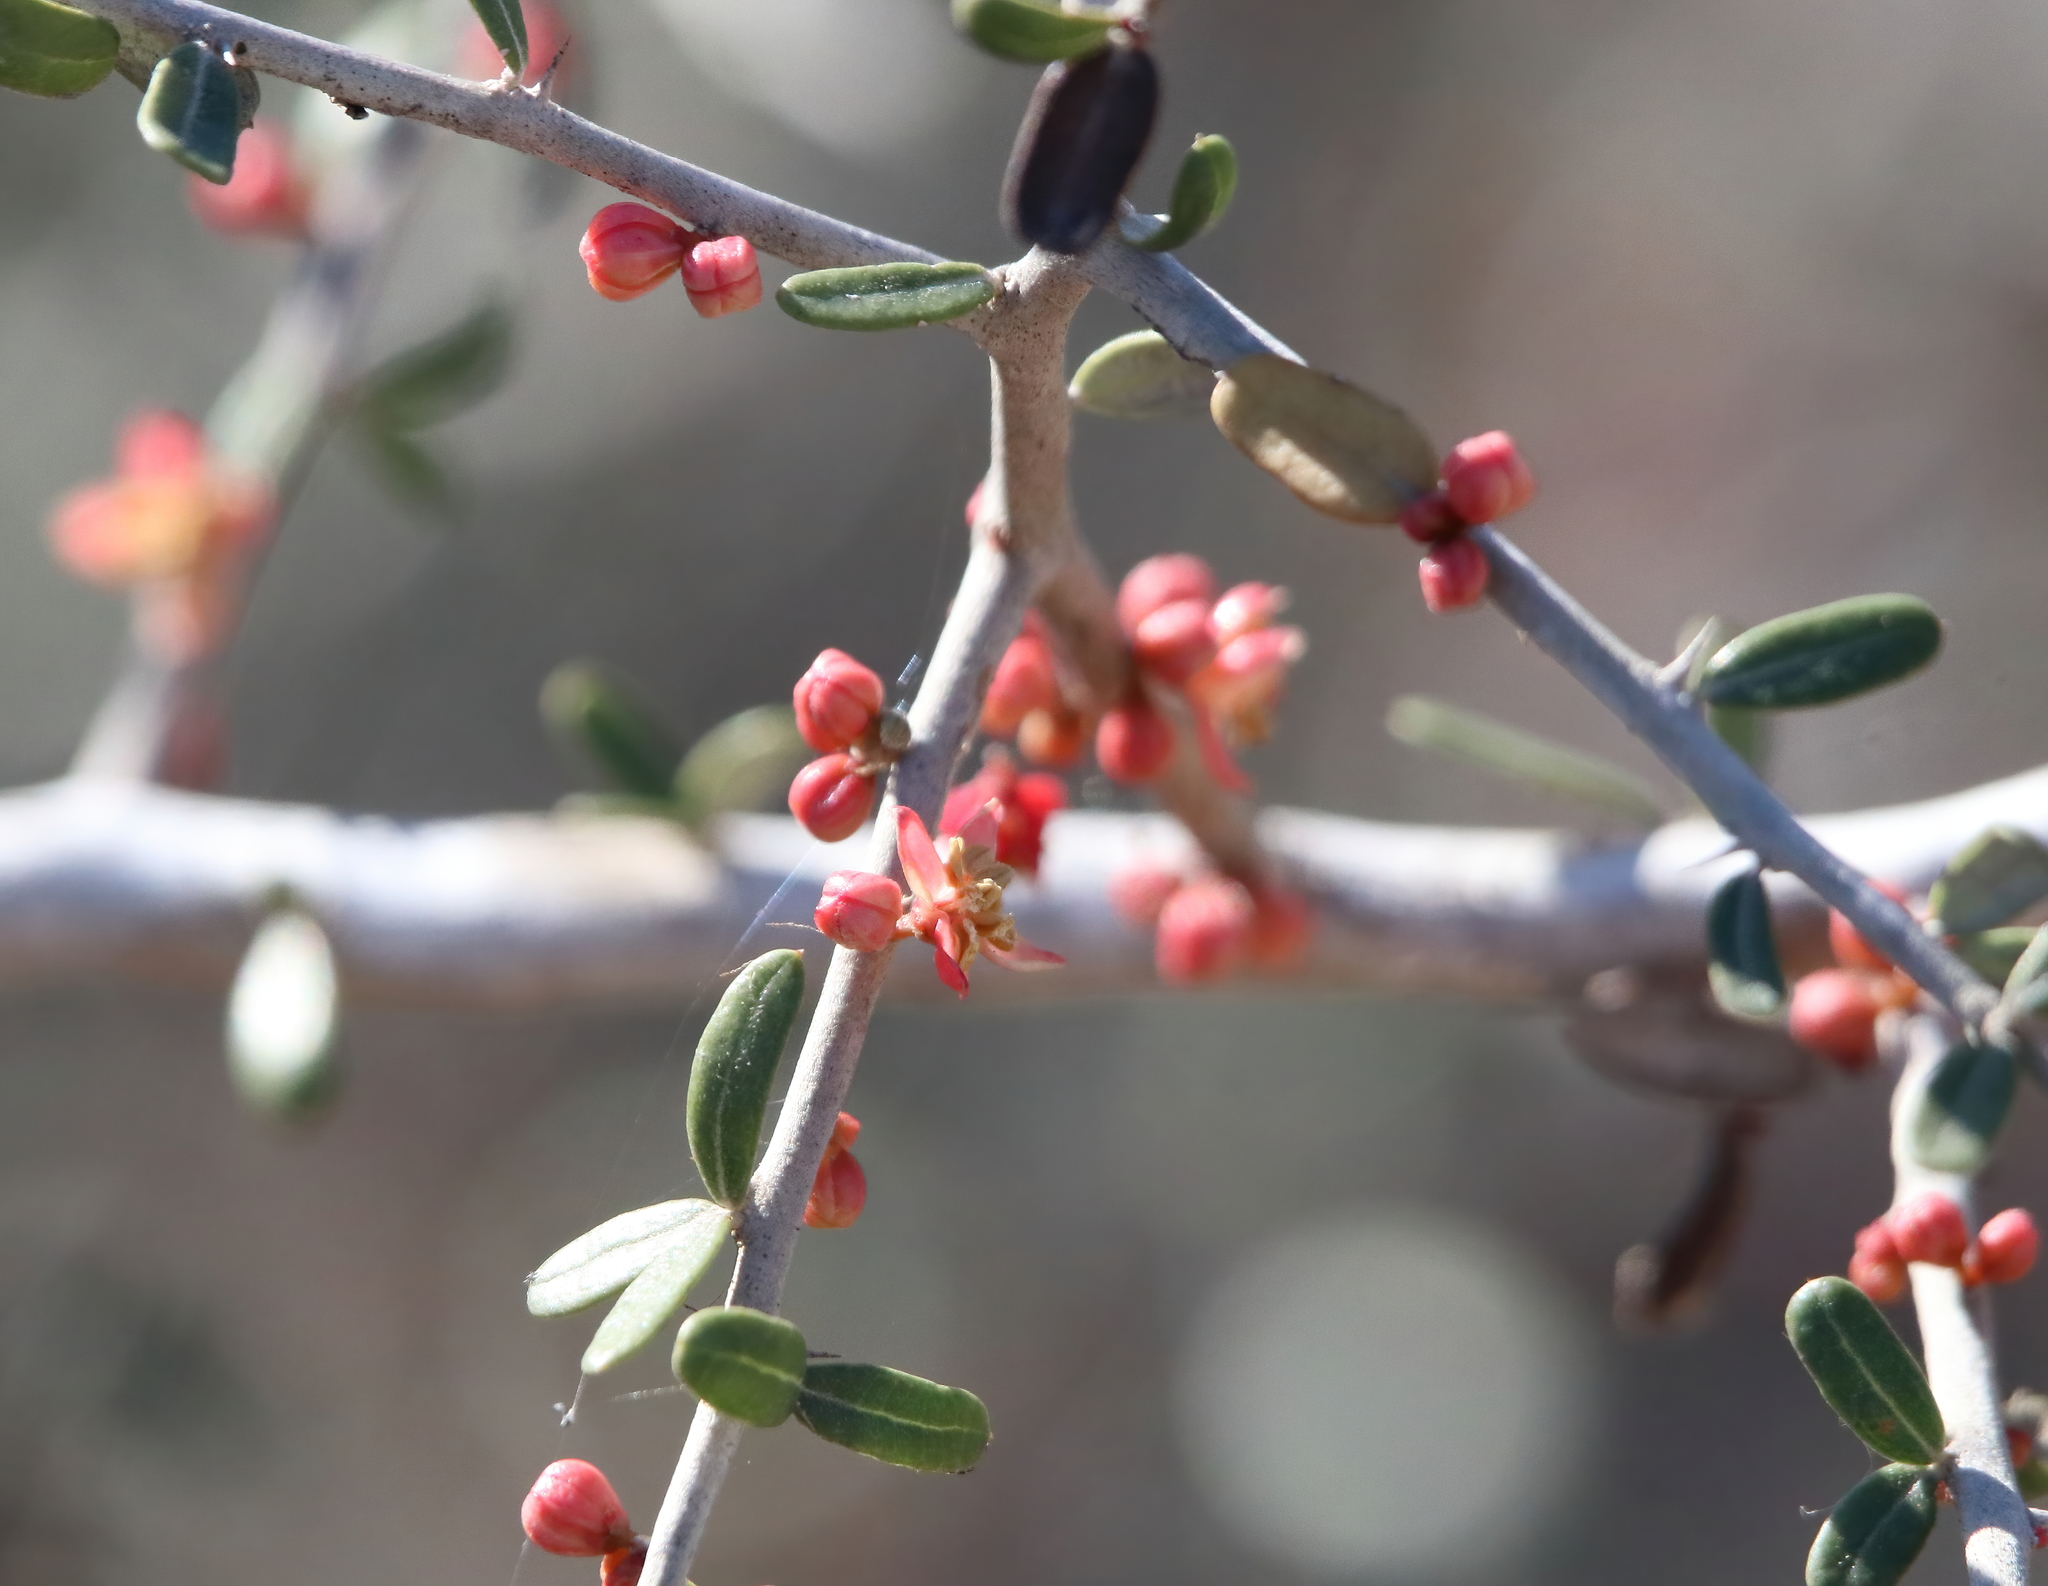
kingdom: Plantae
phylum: Tracheophyta
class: Magnoliopsida
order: Sapindales
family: Simaroubaceae
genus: Castela
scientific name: Castela erecta
